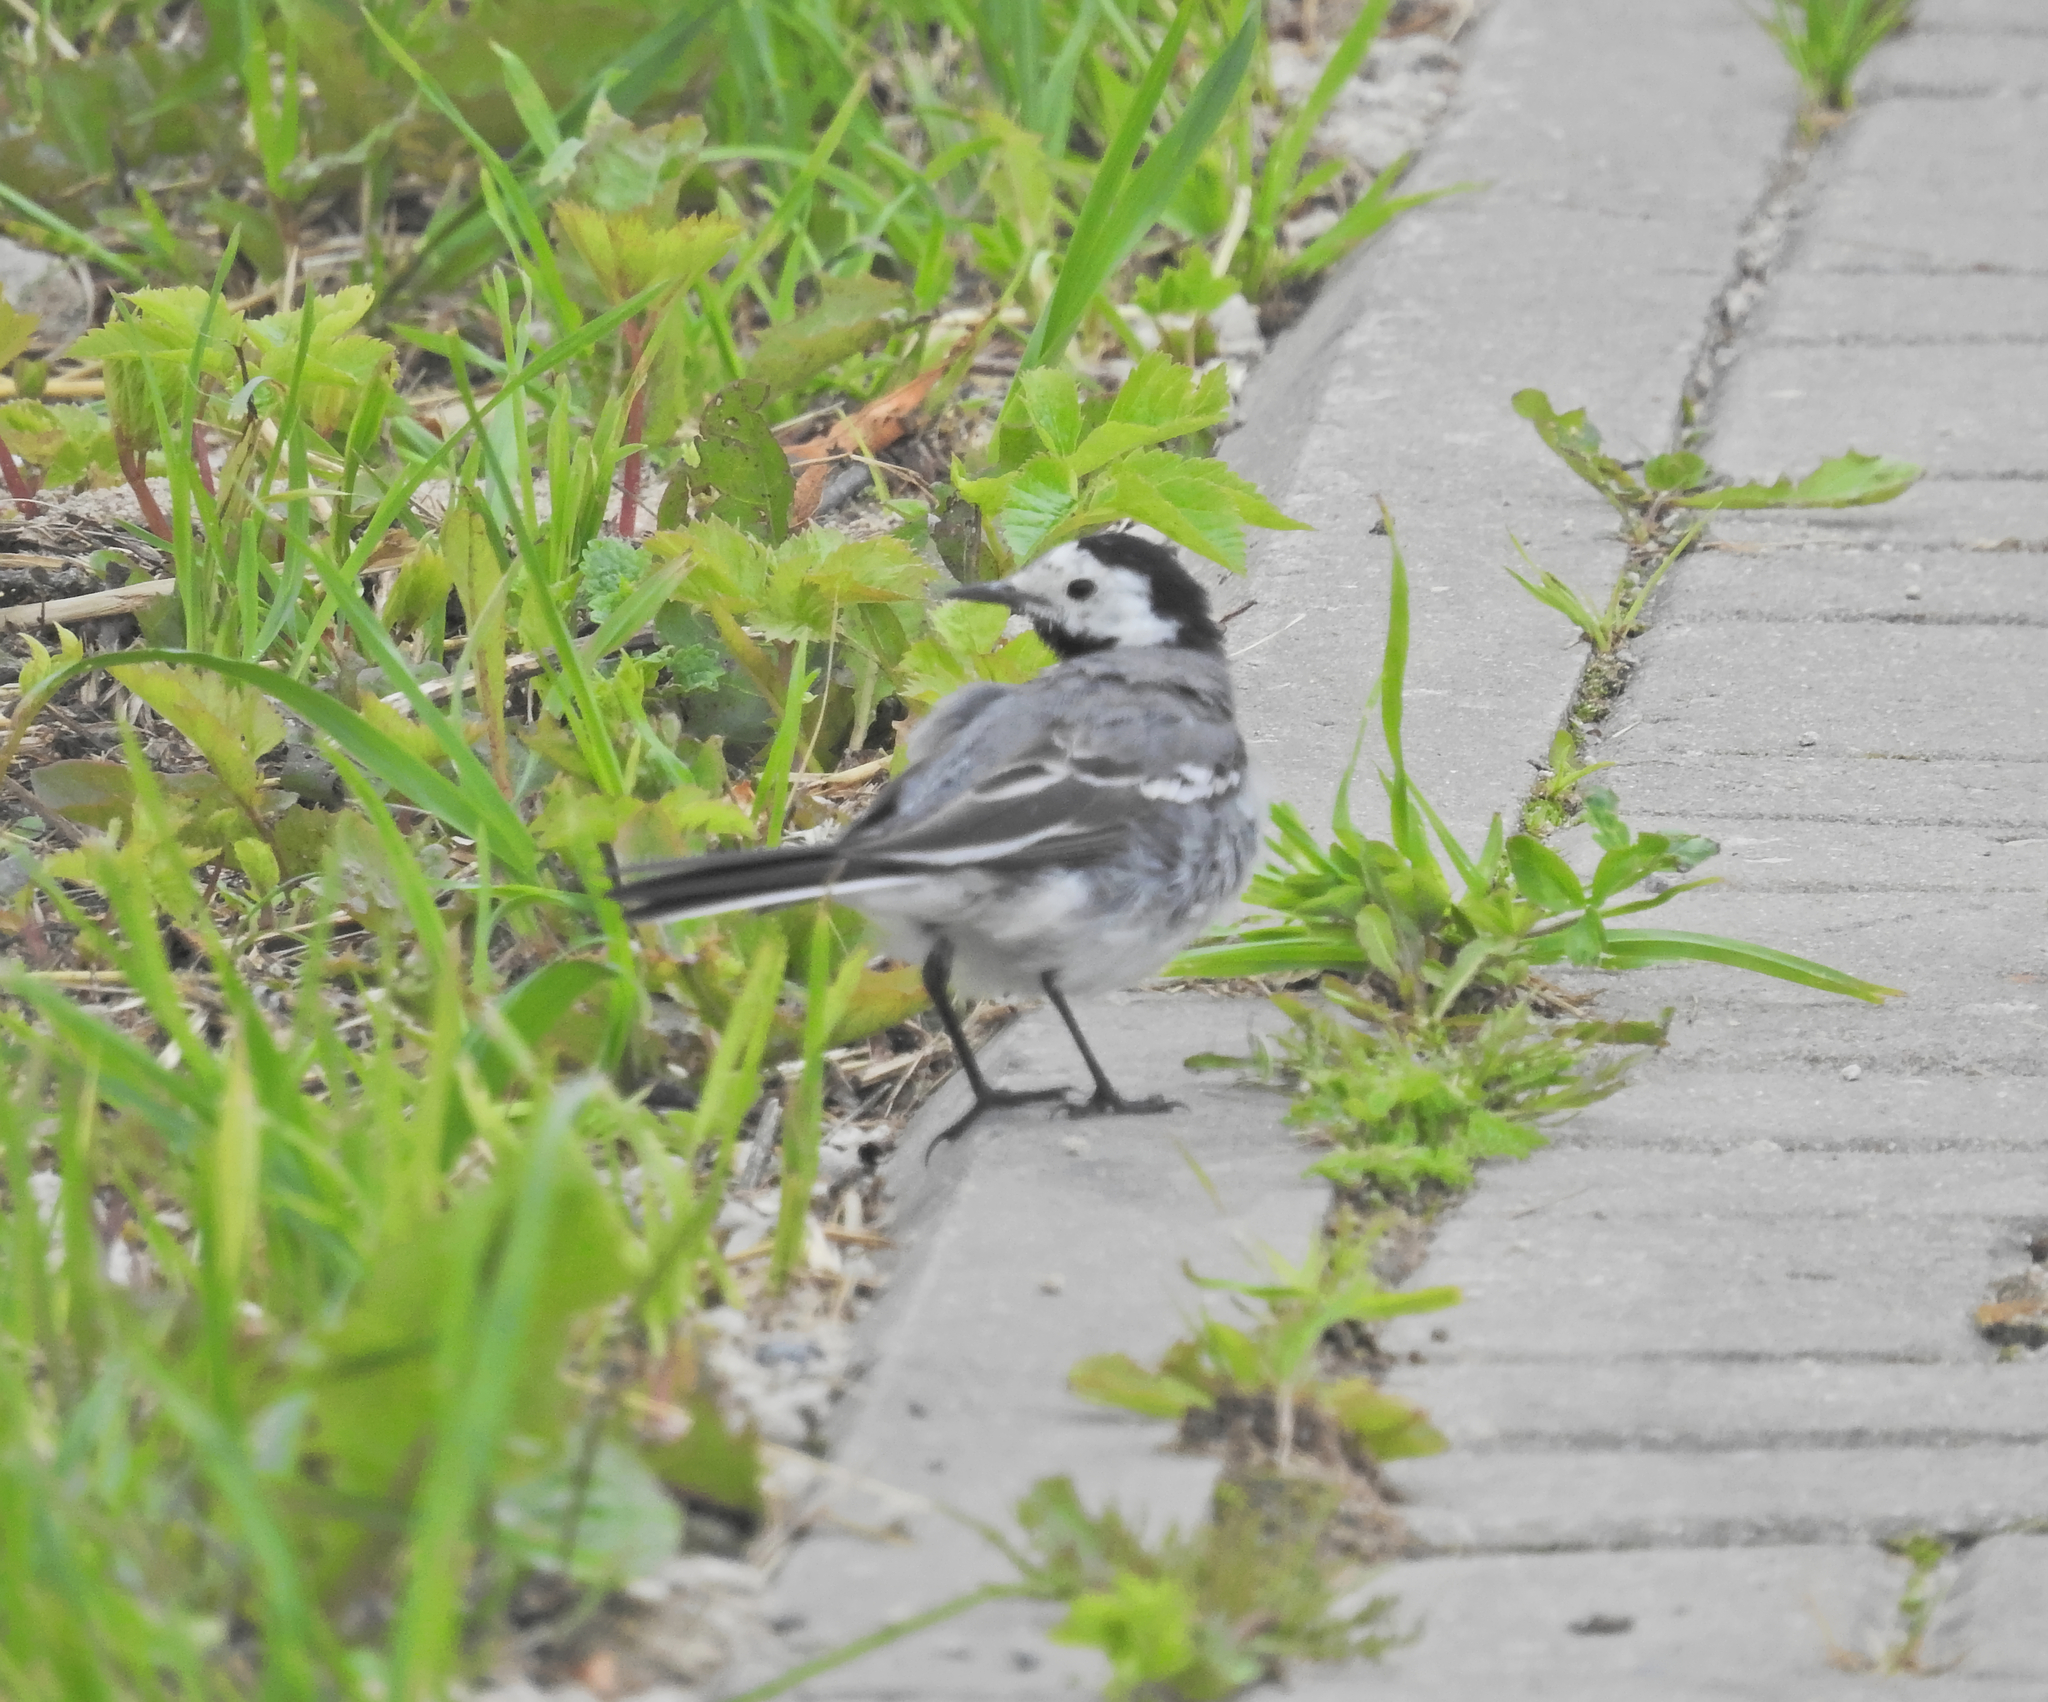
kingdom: Animalia
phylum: Chordata
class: Aves
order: Passeriformes
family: Motacillidae
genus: Motacilla
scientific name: Motacilla alba
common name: White wagtail
